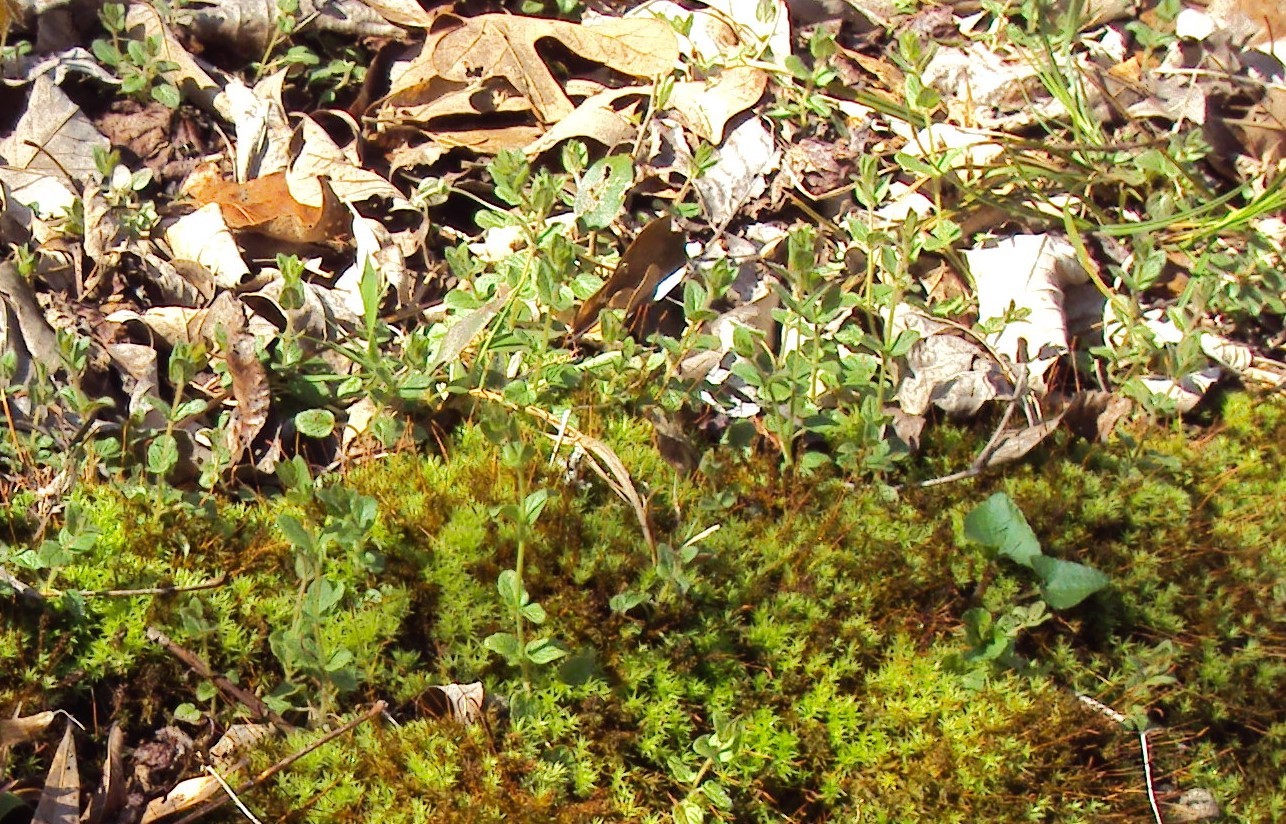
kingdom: Plantae
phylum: Tracheophyta
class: Magnoliopsida
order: Lamiales
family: Lamiaceae
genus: Scutellaria
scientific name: Scutellaria parvula
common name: Little scullcap
